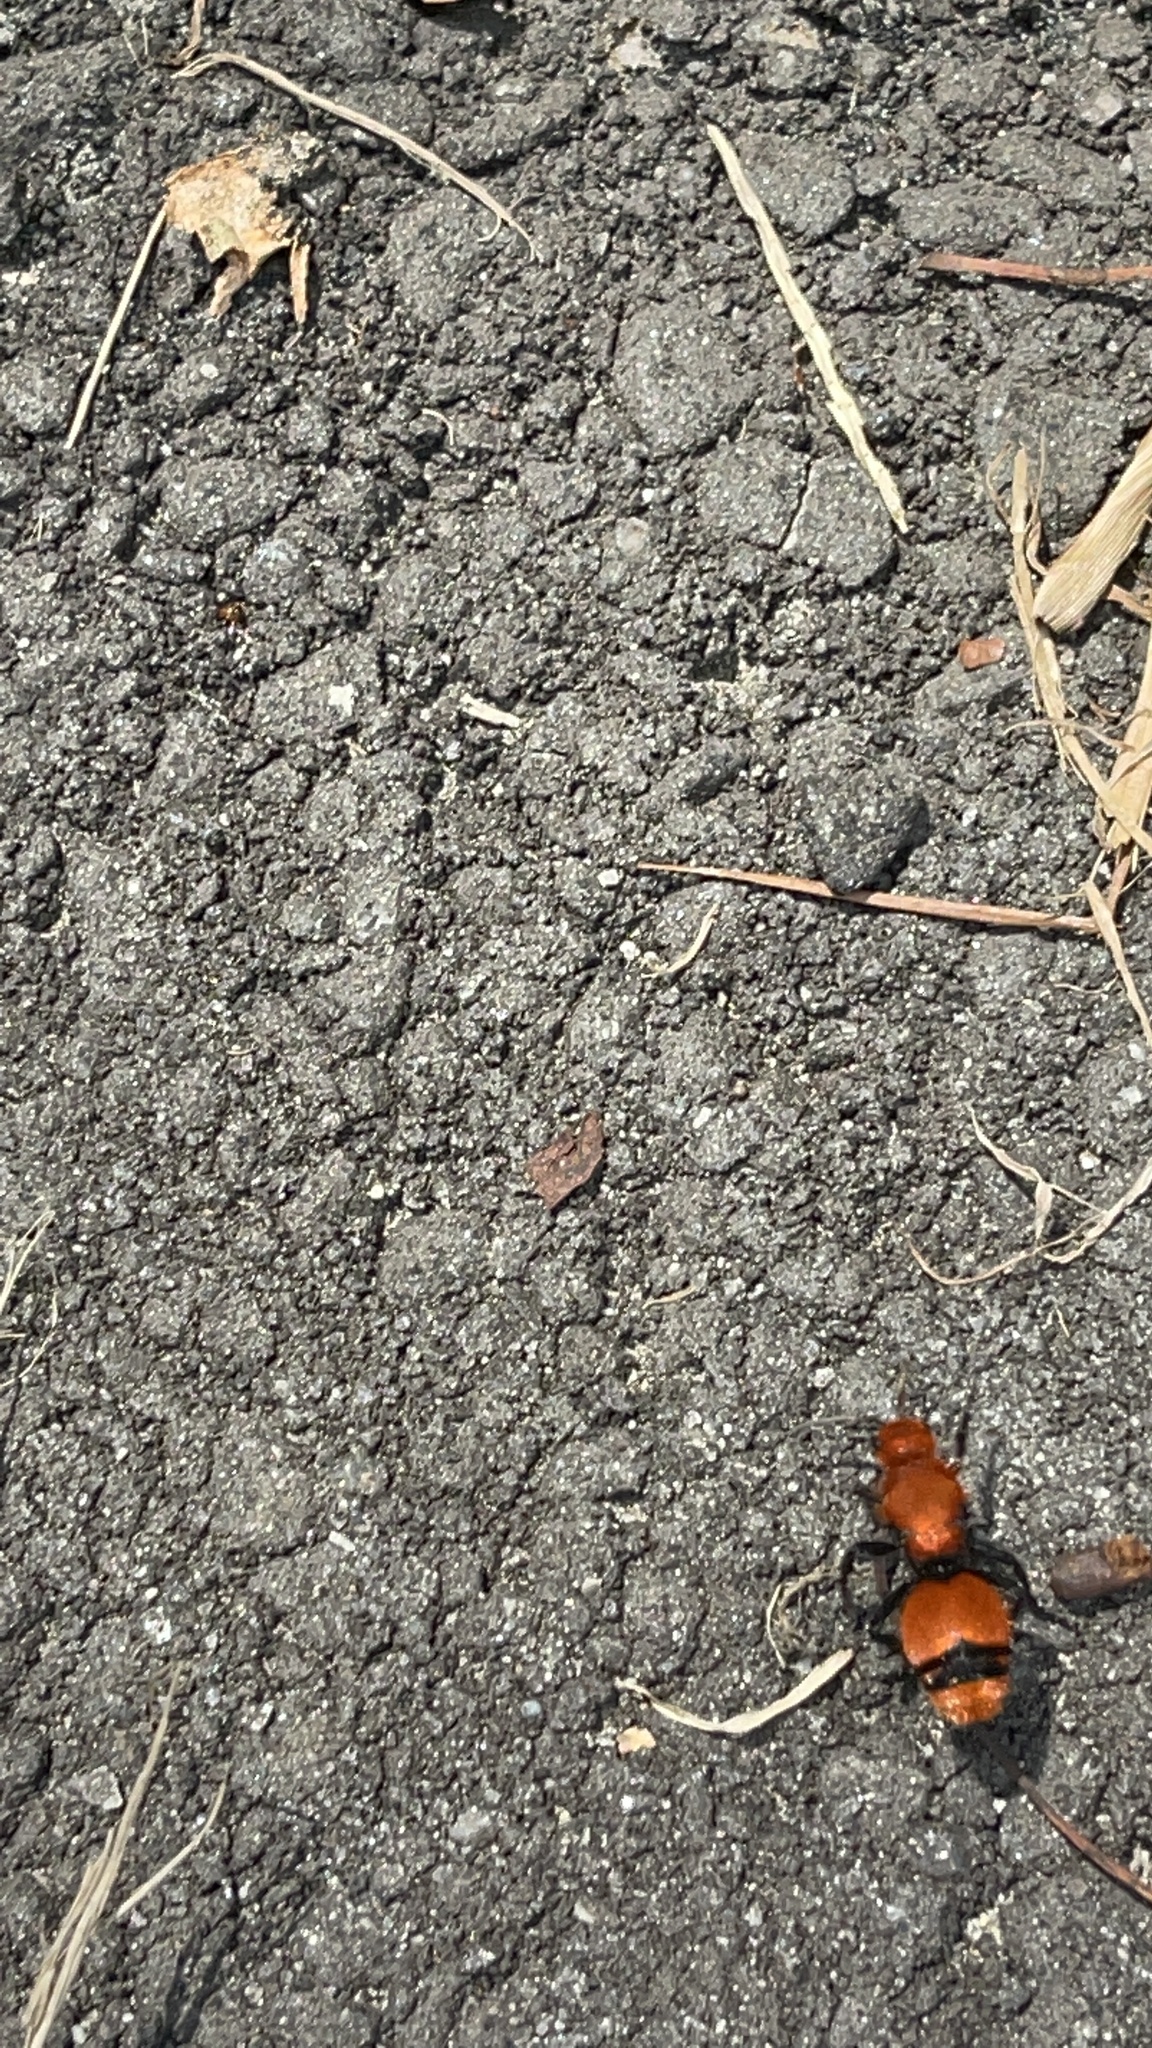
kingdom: Animalia
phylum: Arthropoda
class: Insecta
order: Hymenoptera
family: Mutillidae
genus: Dasymutilla
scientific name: Dasymutilla occidentalis
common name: Common eastern velvet ant
